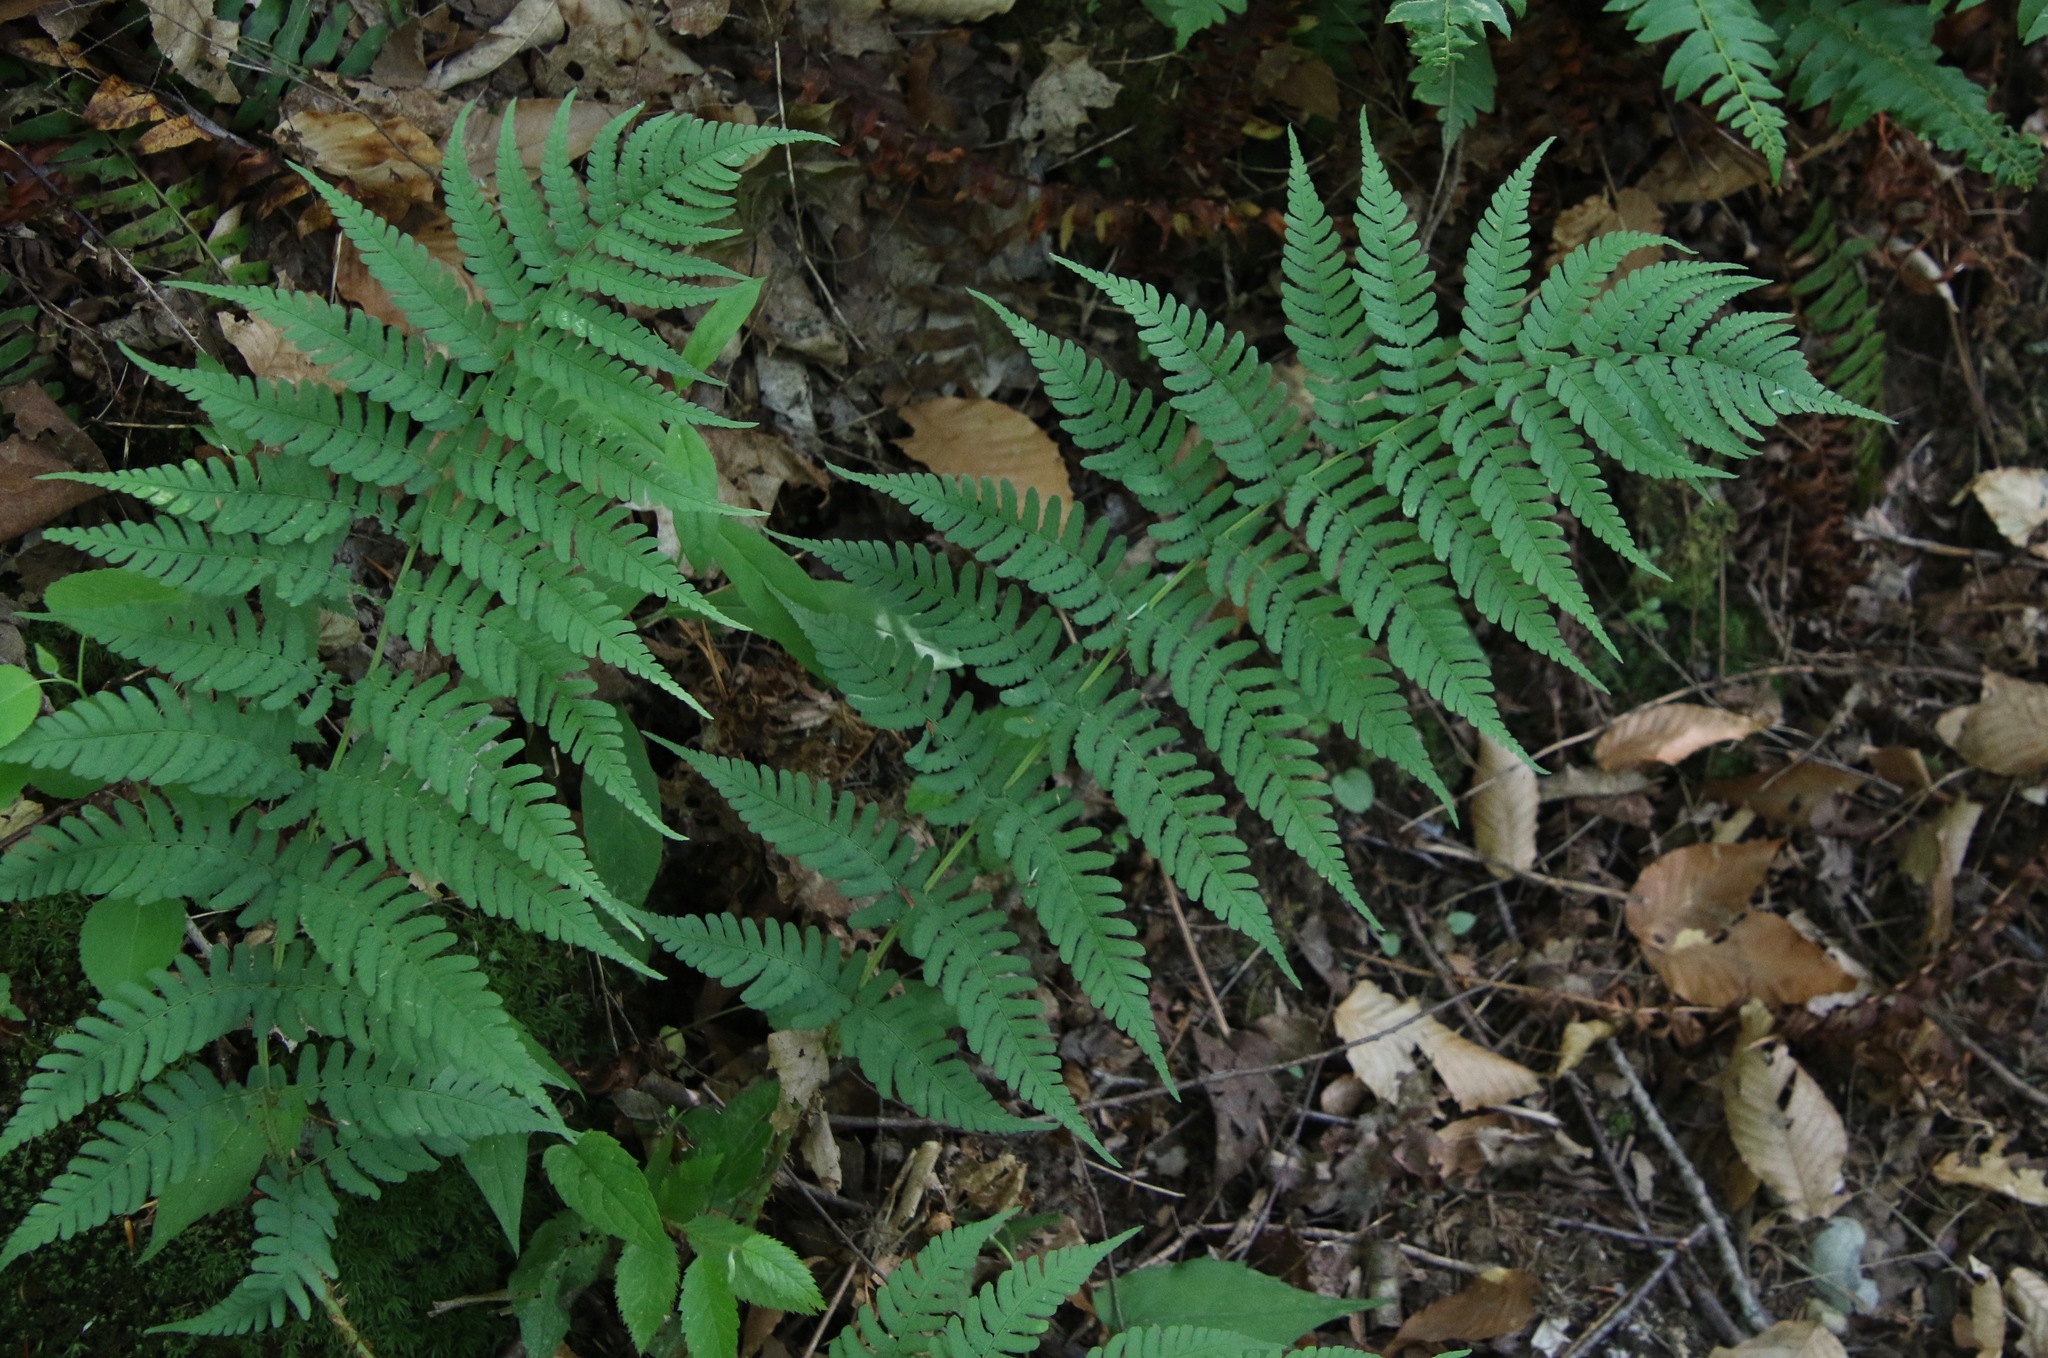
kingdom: Plantae
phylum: Tracheophyta
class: Polypodiopsida
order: Polypodiales
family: Dryopteridaceae
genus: Dryopteris
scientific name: Dryopteris marginalis
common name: Marginal wood fern
